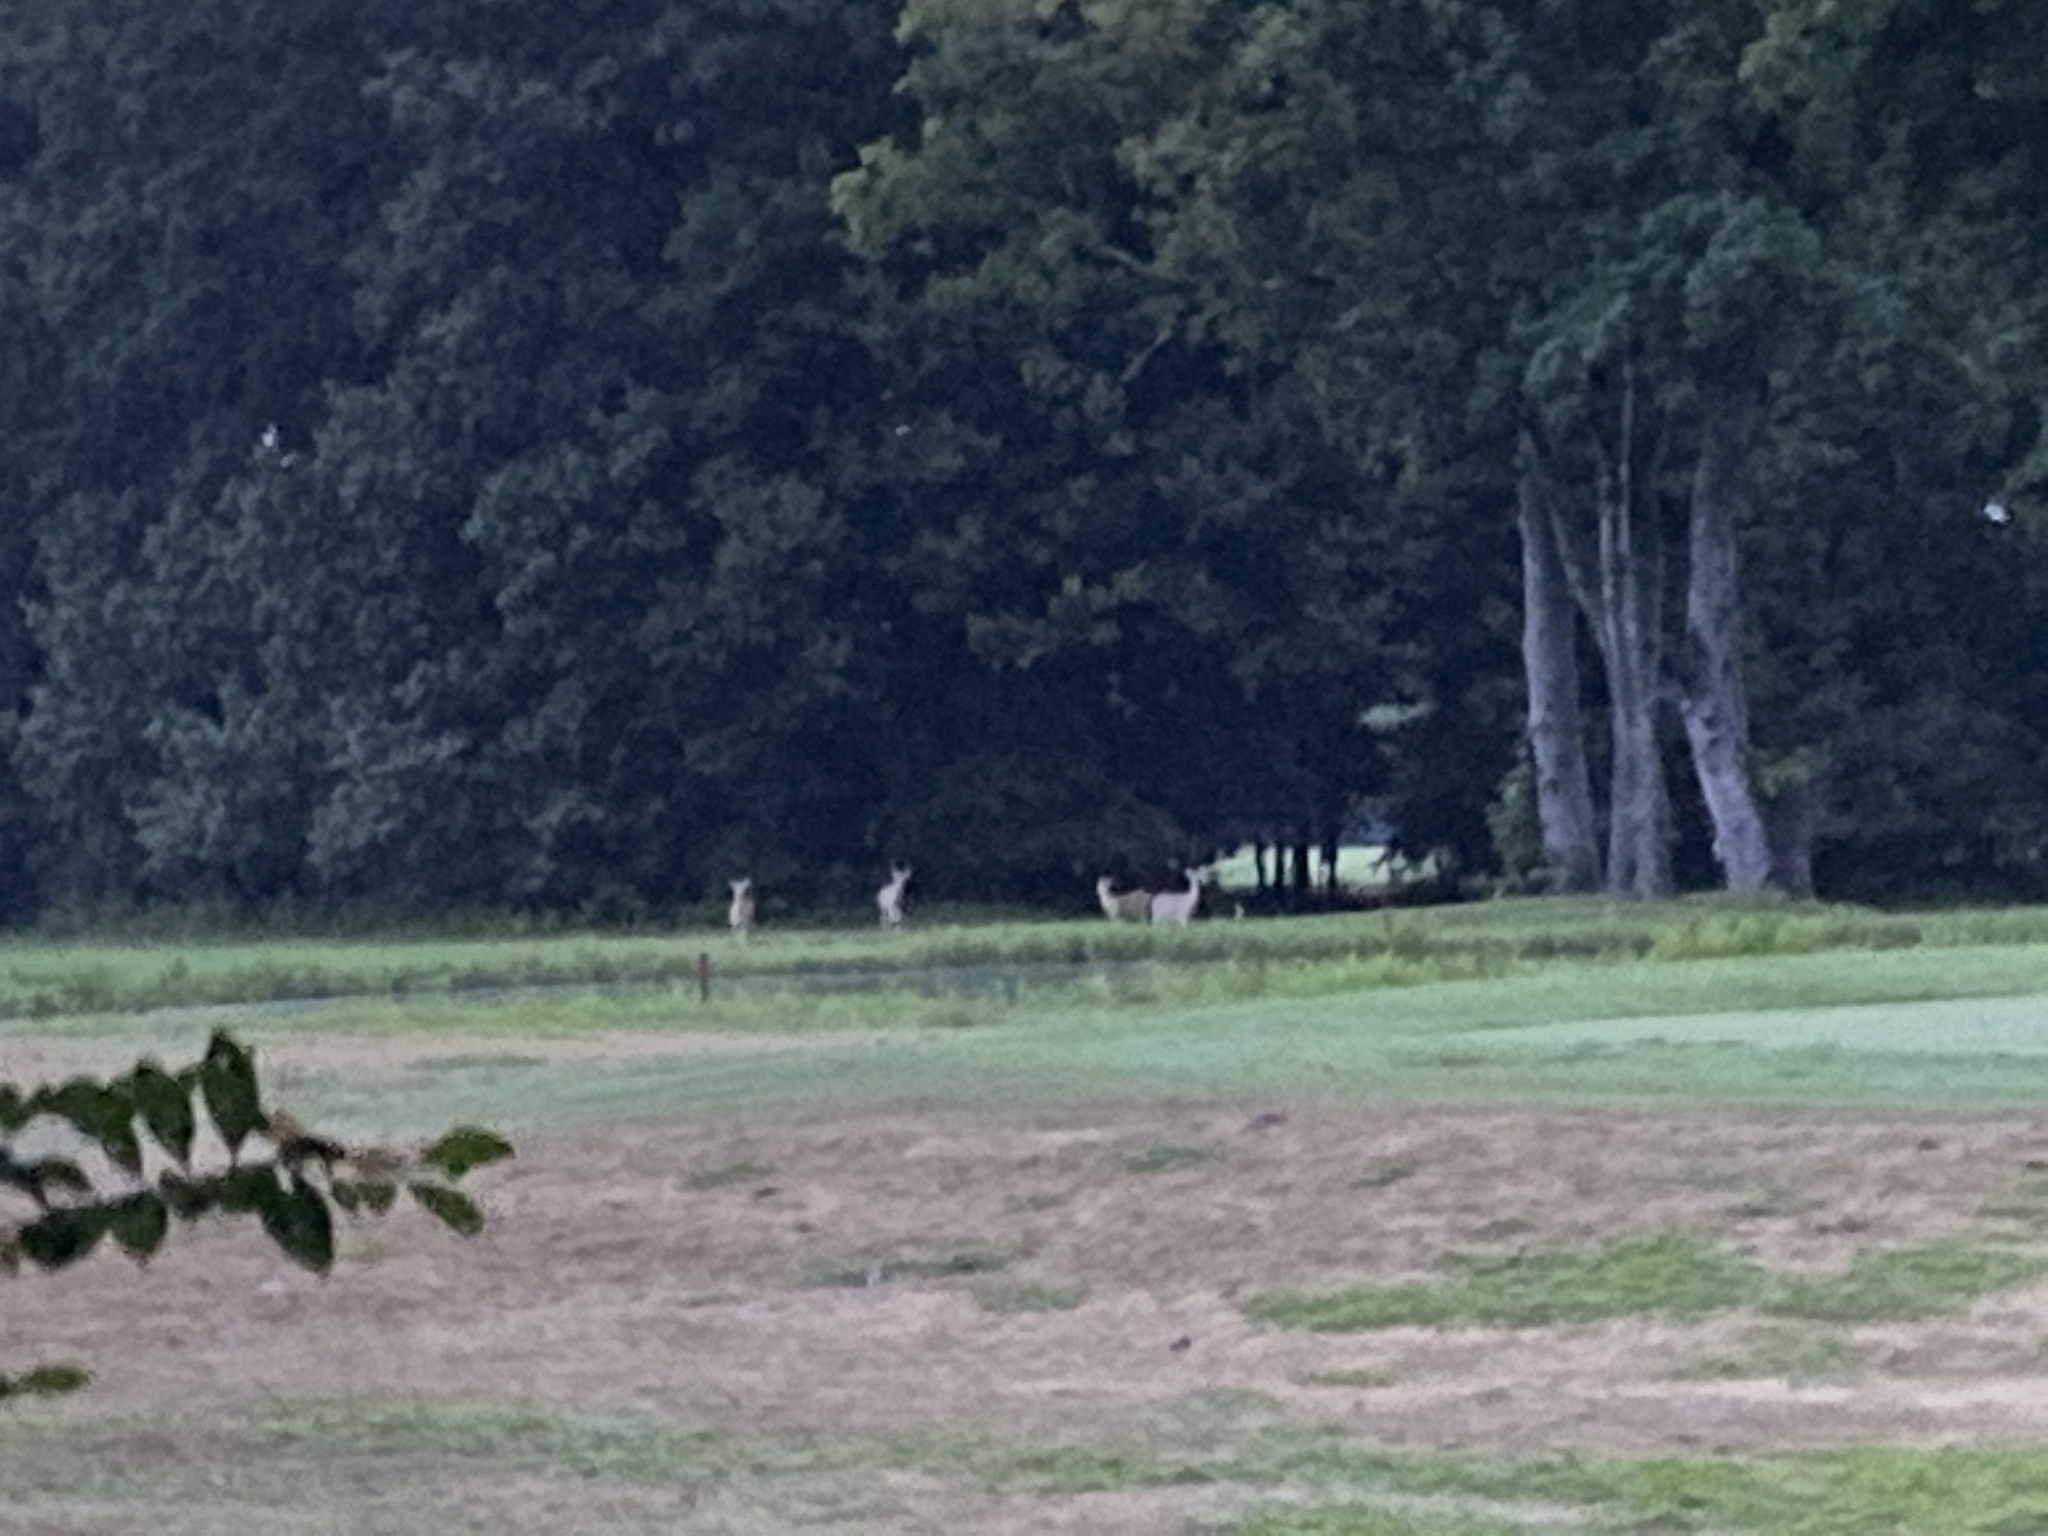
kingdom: Animalia
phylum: Chordata
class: Mammalia
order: Artiodactyla
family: Cervidae
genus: Odocoileus
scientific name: Odocoileus virginianus
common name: White-tailed deer
